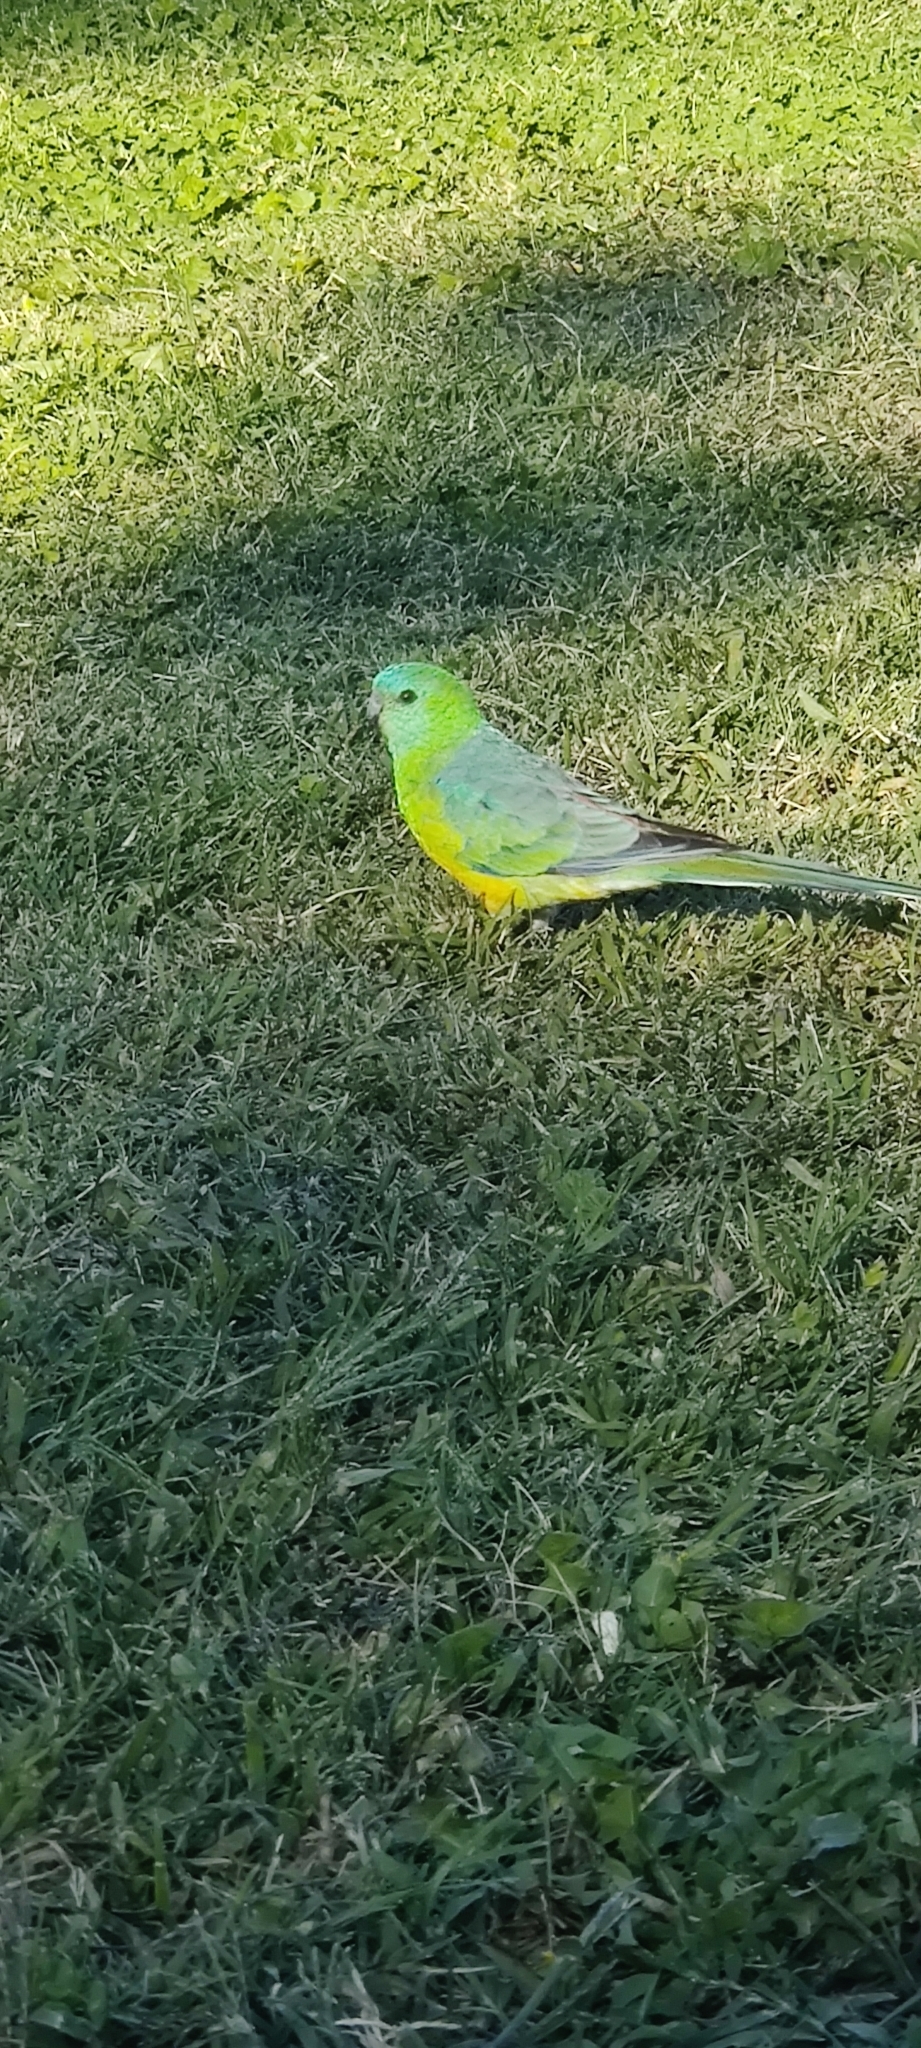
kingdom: Animalia
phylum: Chordata
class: Aves
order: Psittaciformes
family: Psittacidae
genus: Psephotus
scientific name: Psephotus haematonotus
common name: Red-rumped parrot
